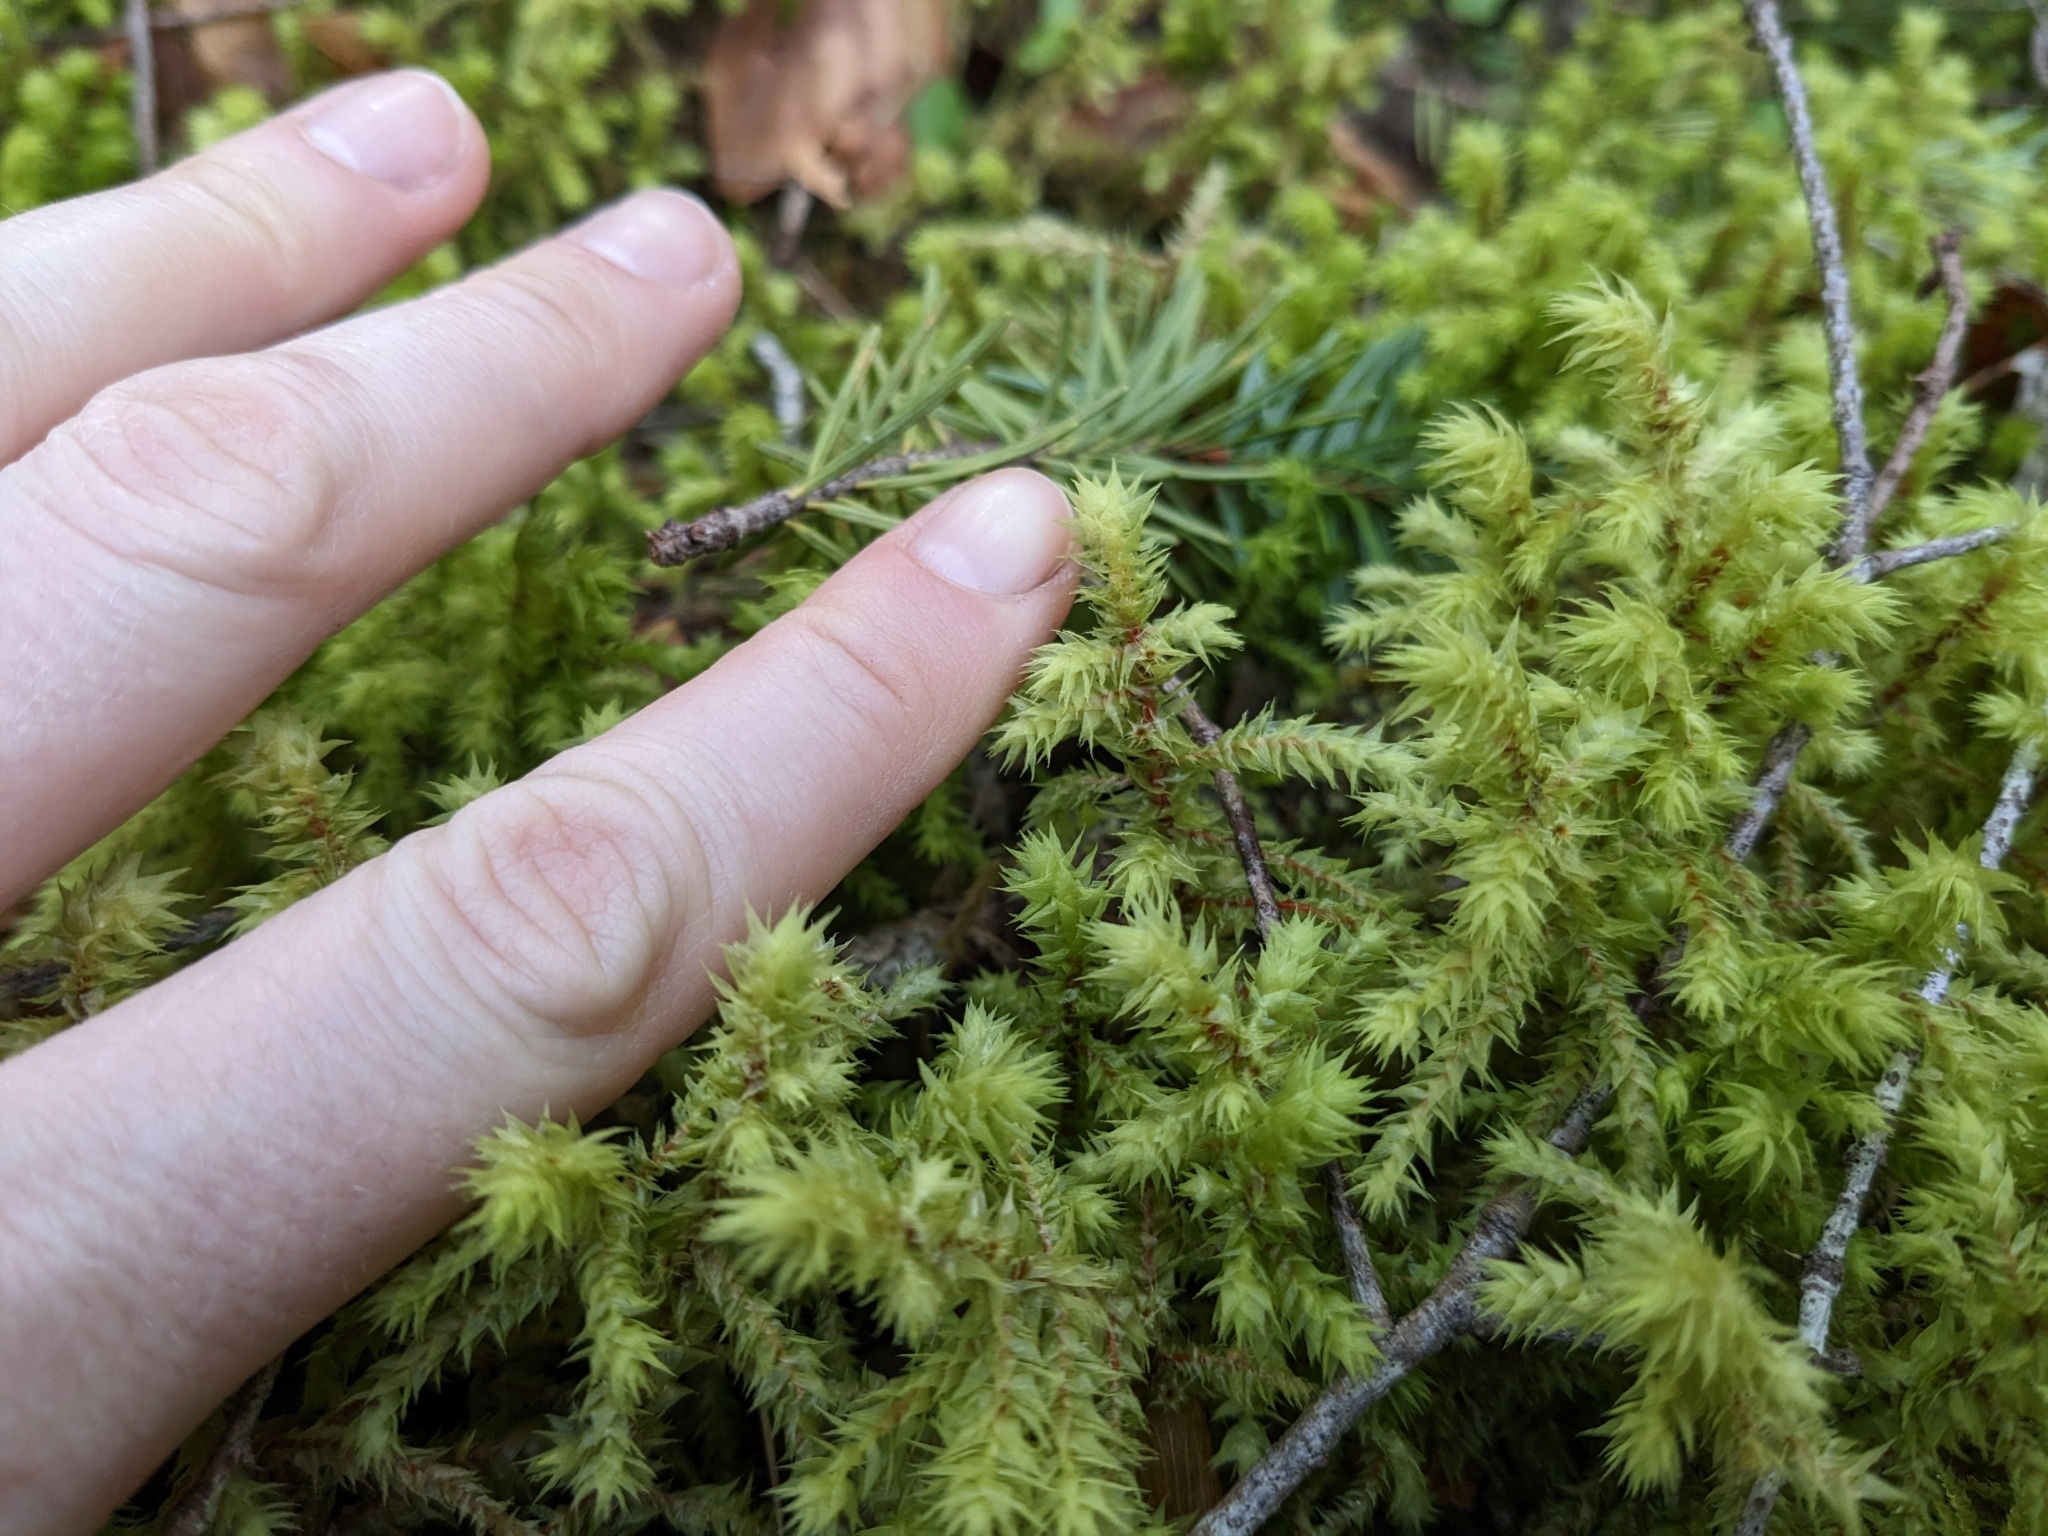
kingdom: Plantae
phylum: Bryophyta
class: Bryopsida
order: Hypnales
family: Hylocomiaceae
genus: Hylocomiadelphus
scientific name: Hylocomiadelphus triquetrus
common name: Rough goose neck moss
